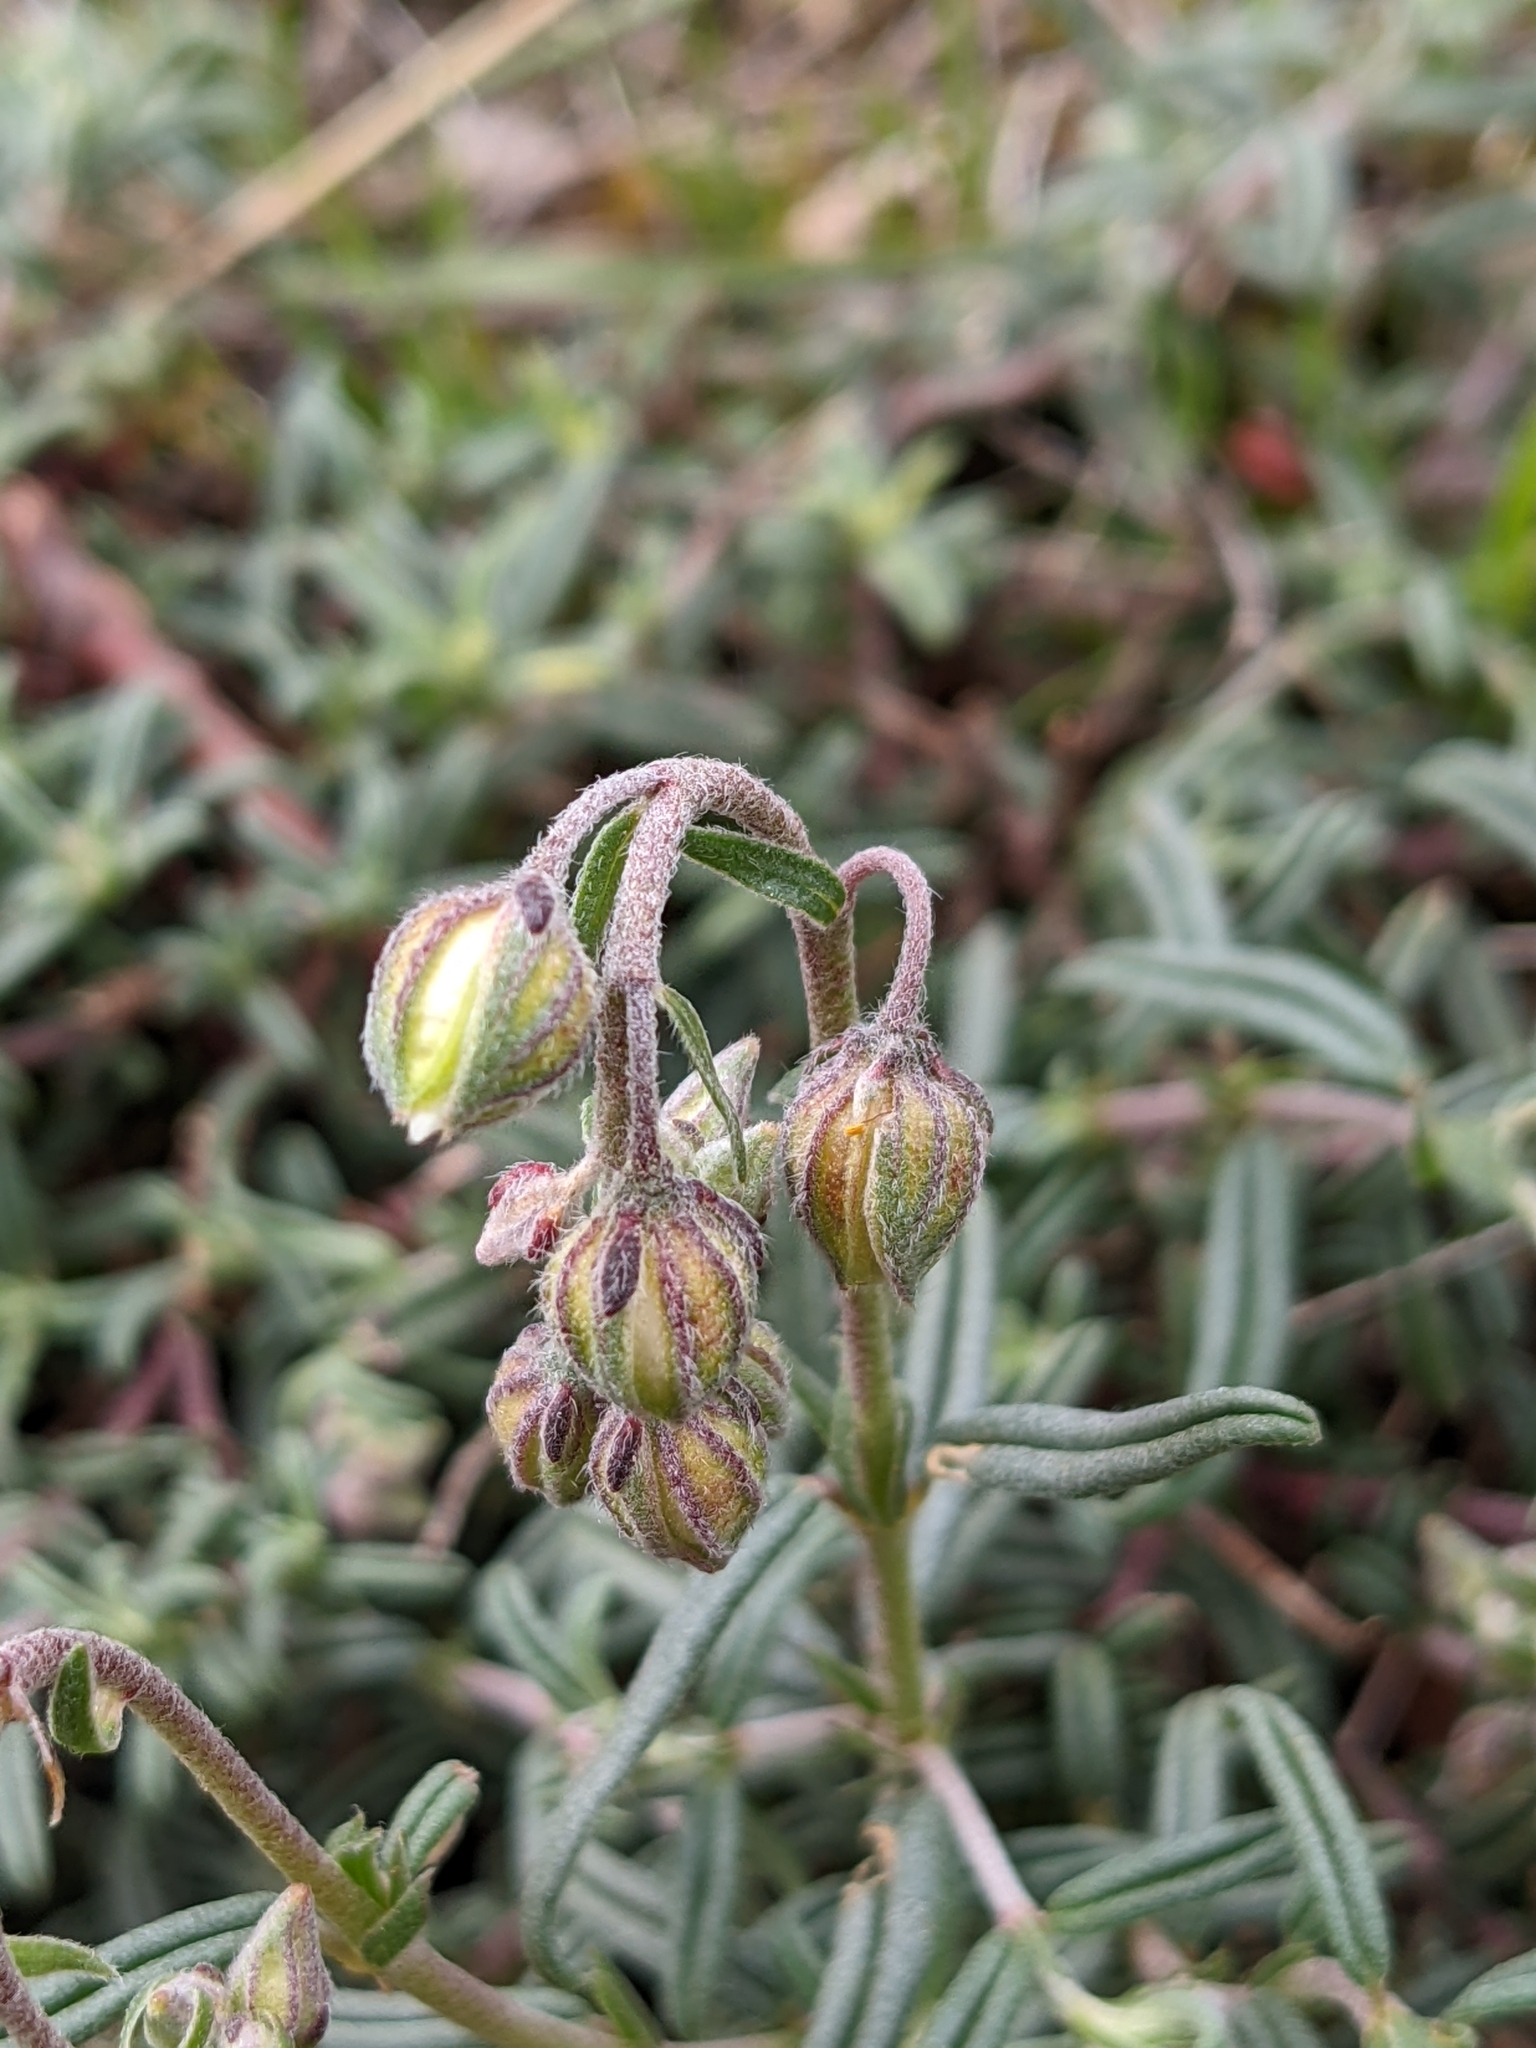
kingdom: Plantae
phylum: Tracheophyta
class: Magnoliopsida
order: Malvales
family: Cistaceae
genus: Helianthemum
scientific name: Helianthemum apenninum
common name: White rock-rose
